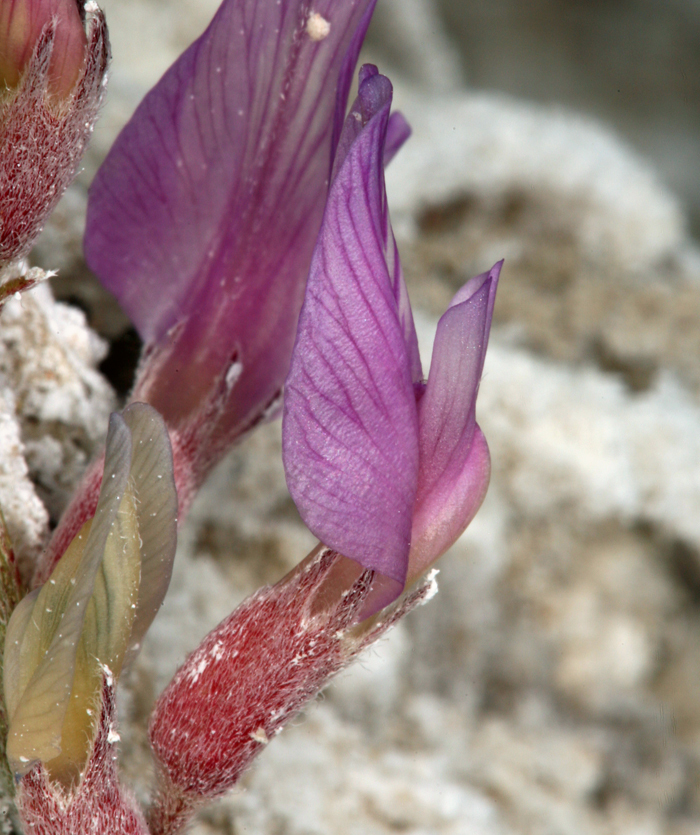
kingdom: Plantae
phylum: Tracheophyta
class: Magnoliopsida
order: Fabales
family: Fabaceae
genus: Astragalus
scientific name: Astragalus lentiginosus
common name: Freckled milkvetch
